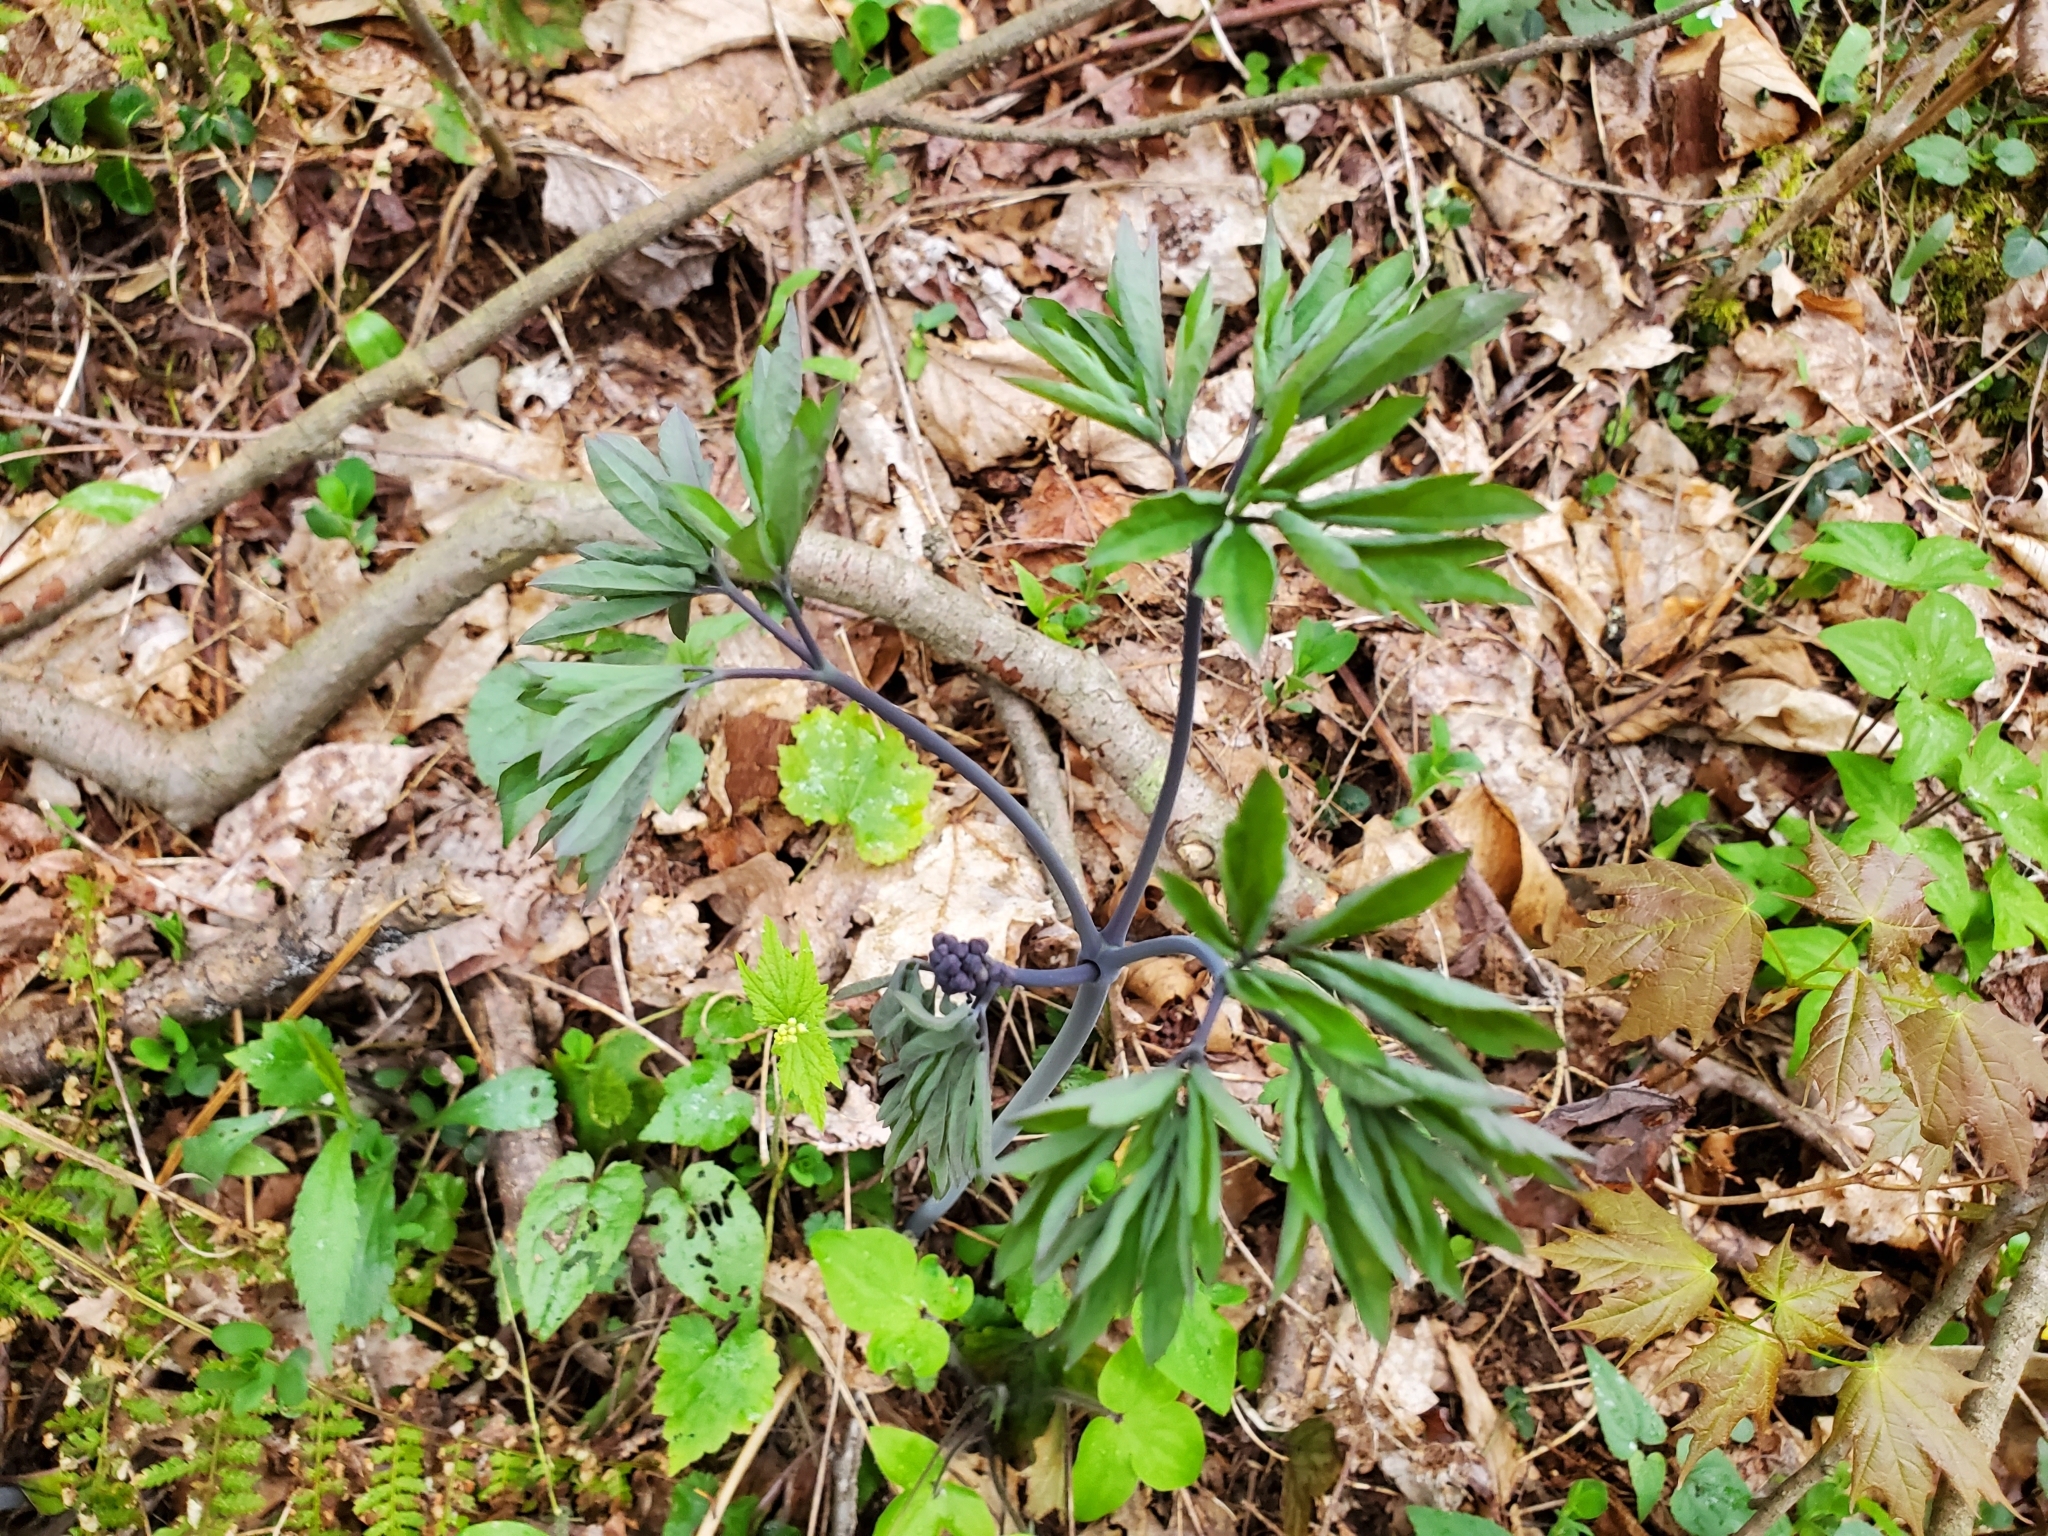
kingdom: Plantae
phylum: Tracheophyta
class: Magnoliopsida
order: Ranunculales
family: Berberidaceae
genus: Caulophyllum
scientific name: Caulophyllum giganteum
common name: Blue cohosh
